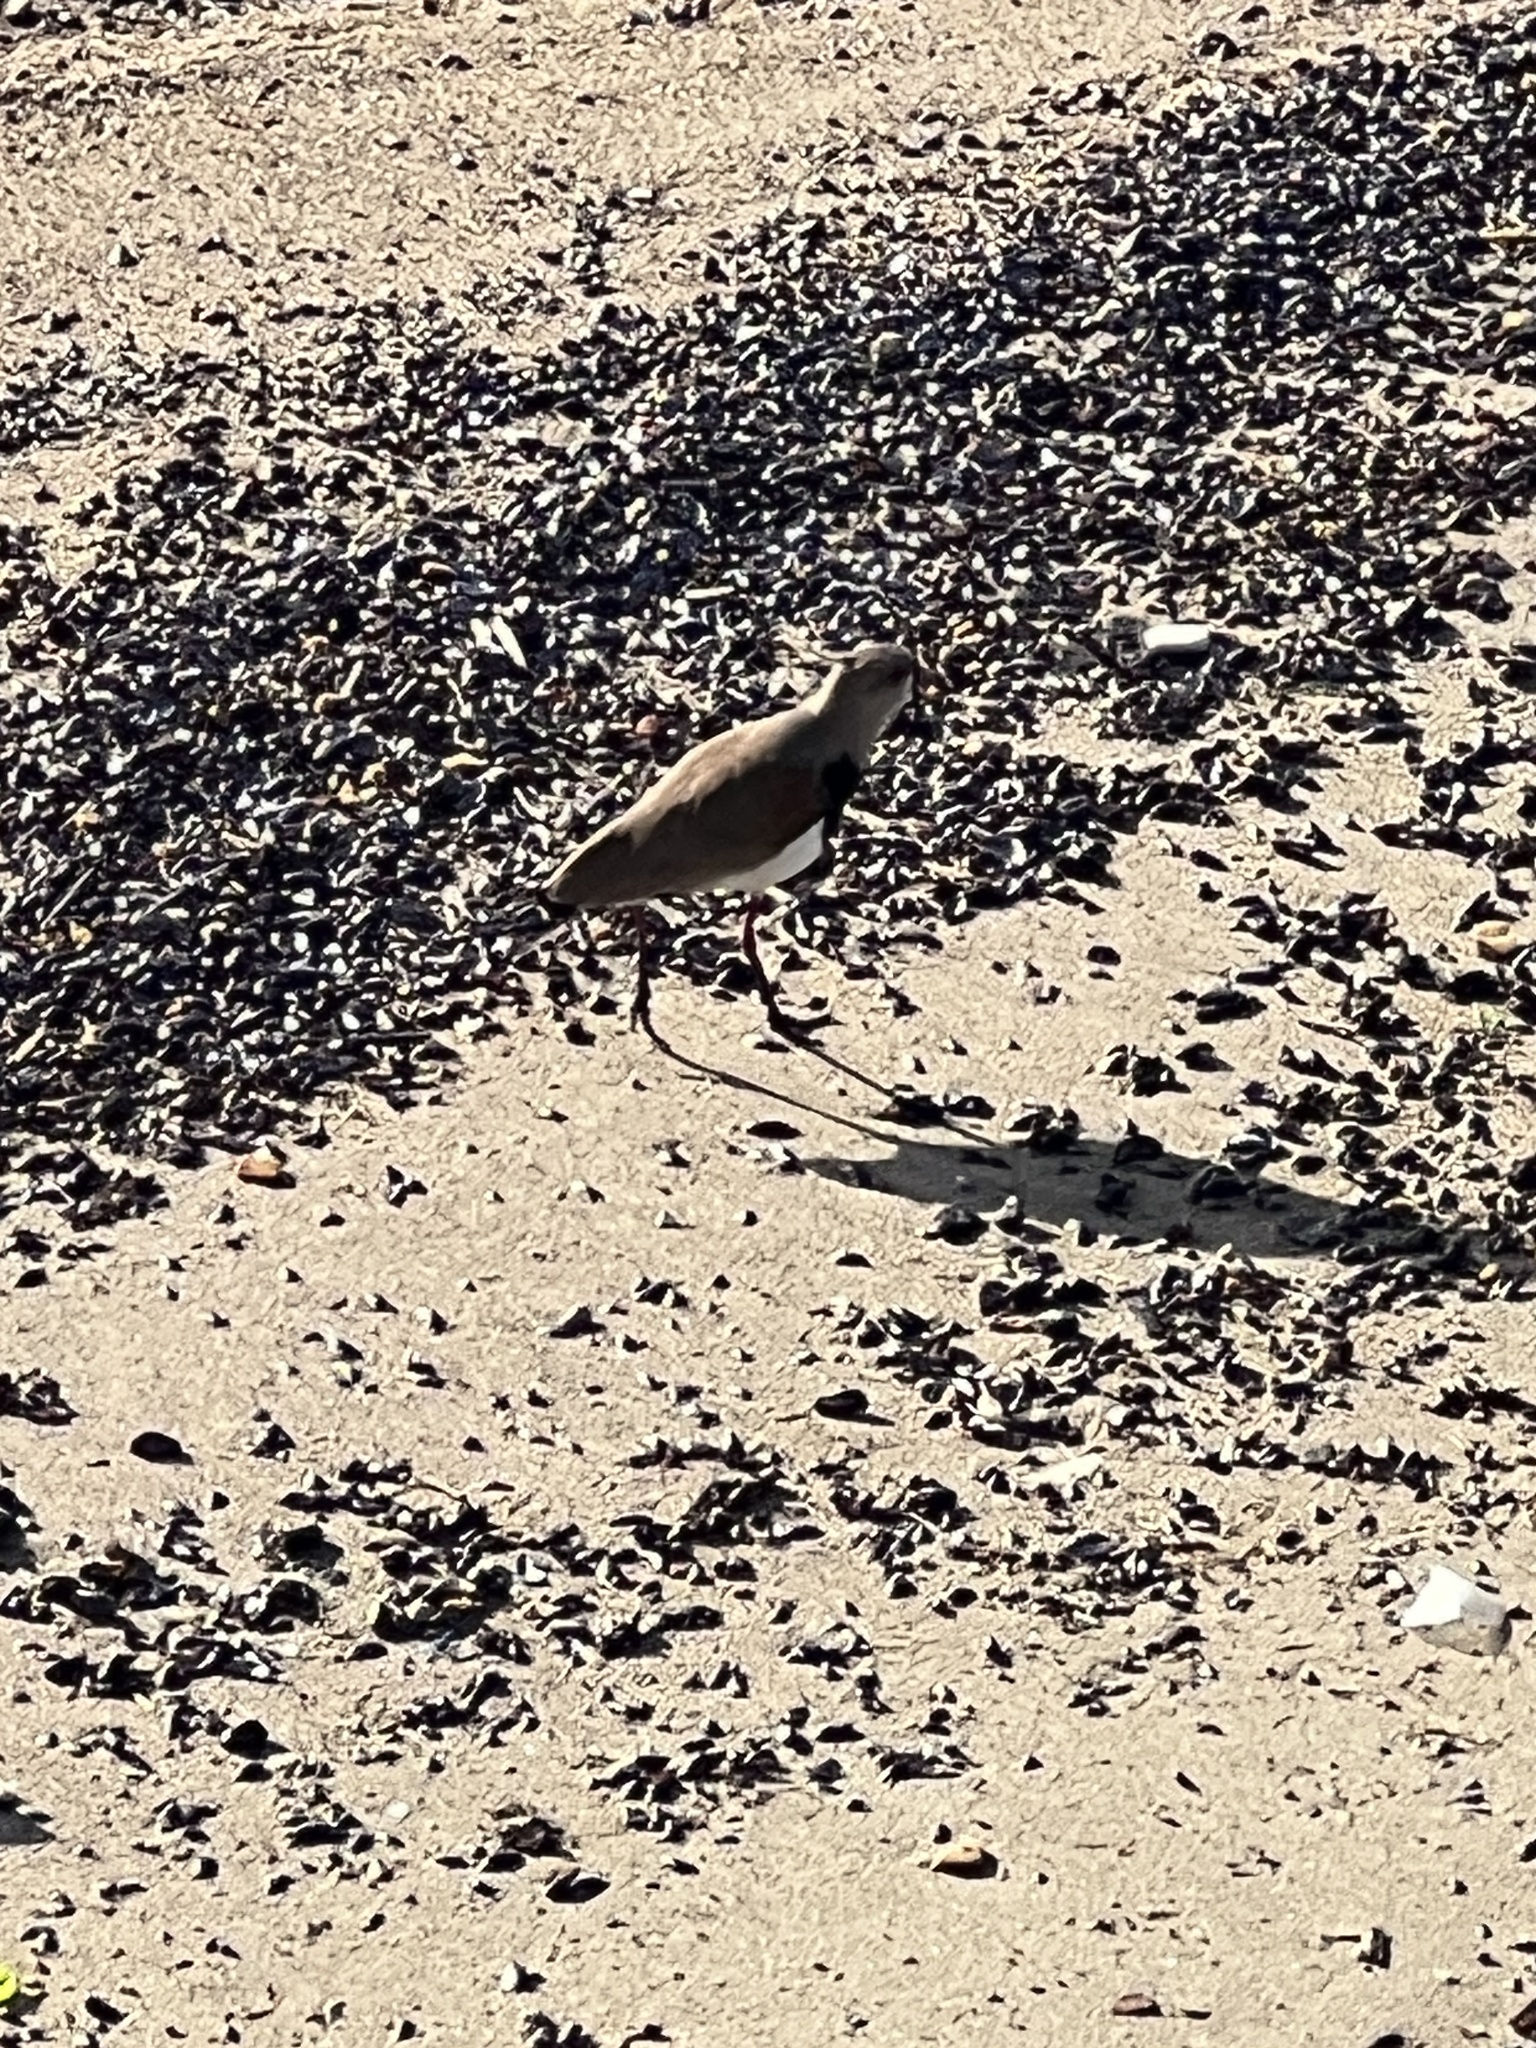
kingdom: Animalia
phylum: Chordata
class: Aves
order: Charadriiformes
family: Charadriidae
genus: Vanellus
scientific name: Vanellus chilensis
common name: Southern lapwing
